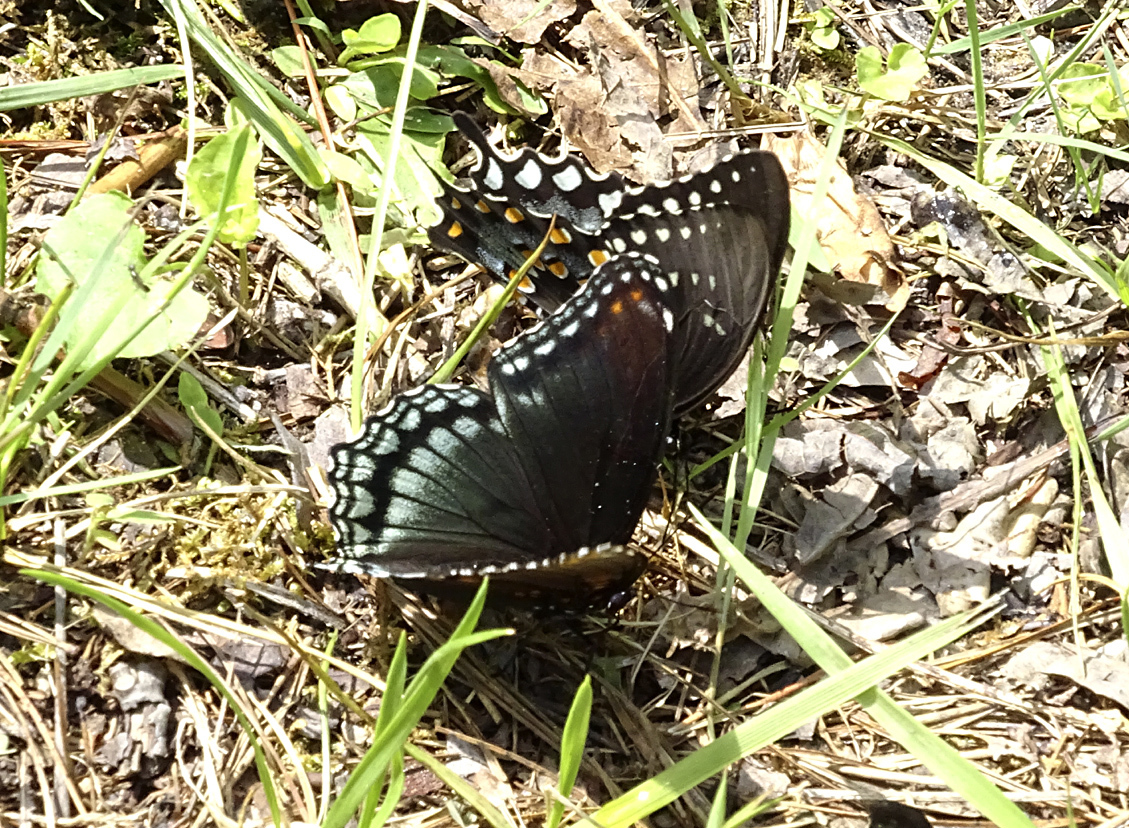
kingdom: Animalia
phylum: Arthropoda
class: Insecta
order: Lepidoptera
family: Nymphalidae
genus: Limenitis
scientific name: Limenitis astyanax
